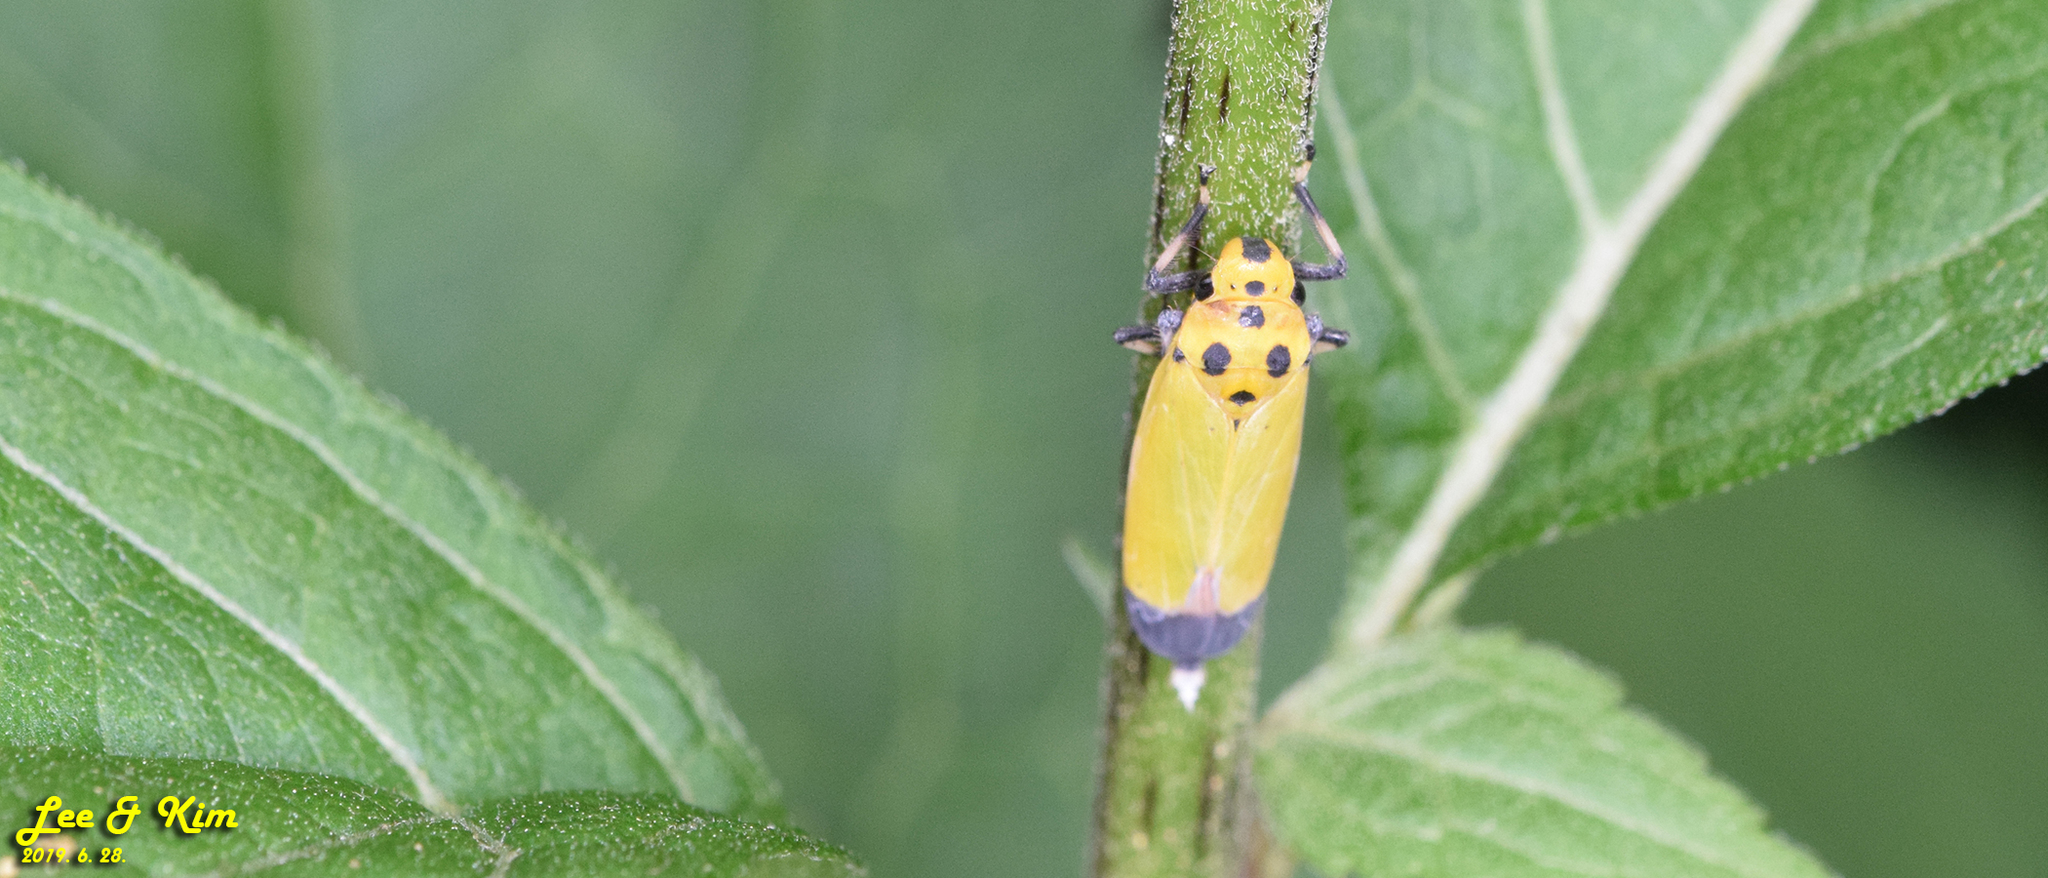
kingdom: Animalia
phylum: Arthropoda
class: Insecta
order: Hemiptera
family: Cicadellidae
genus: Bothrogonia
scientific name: Bothrogonia ferruginea
